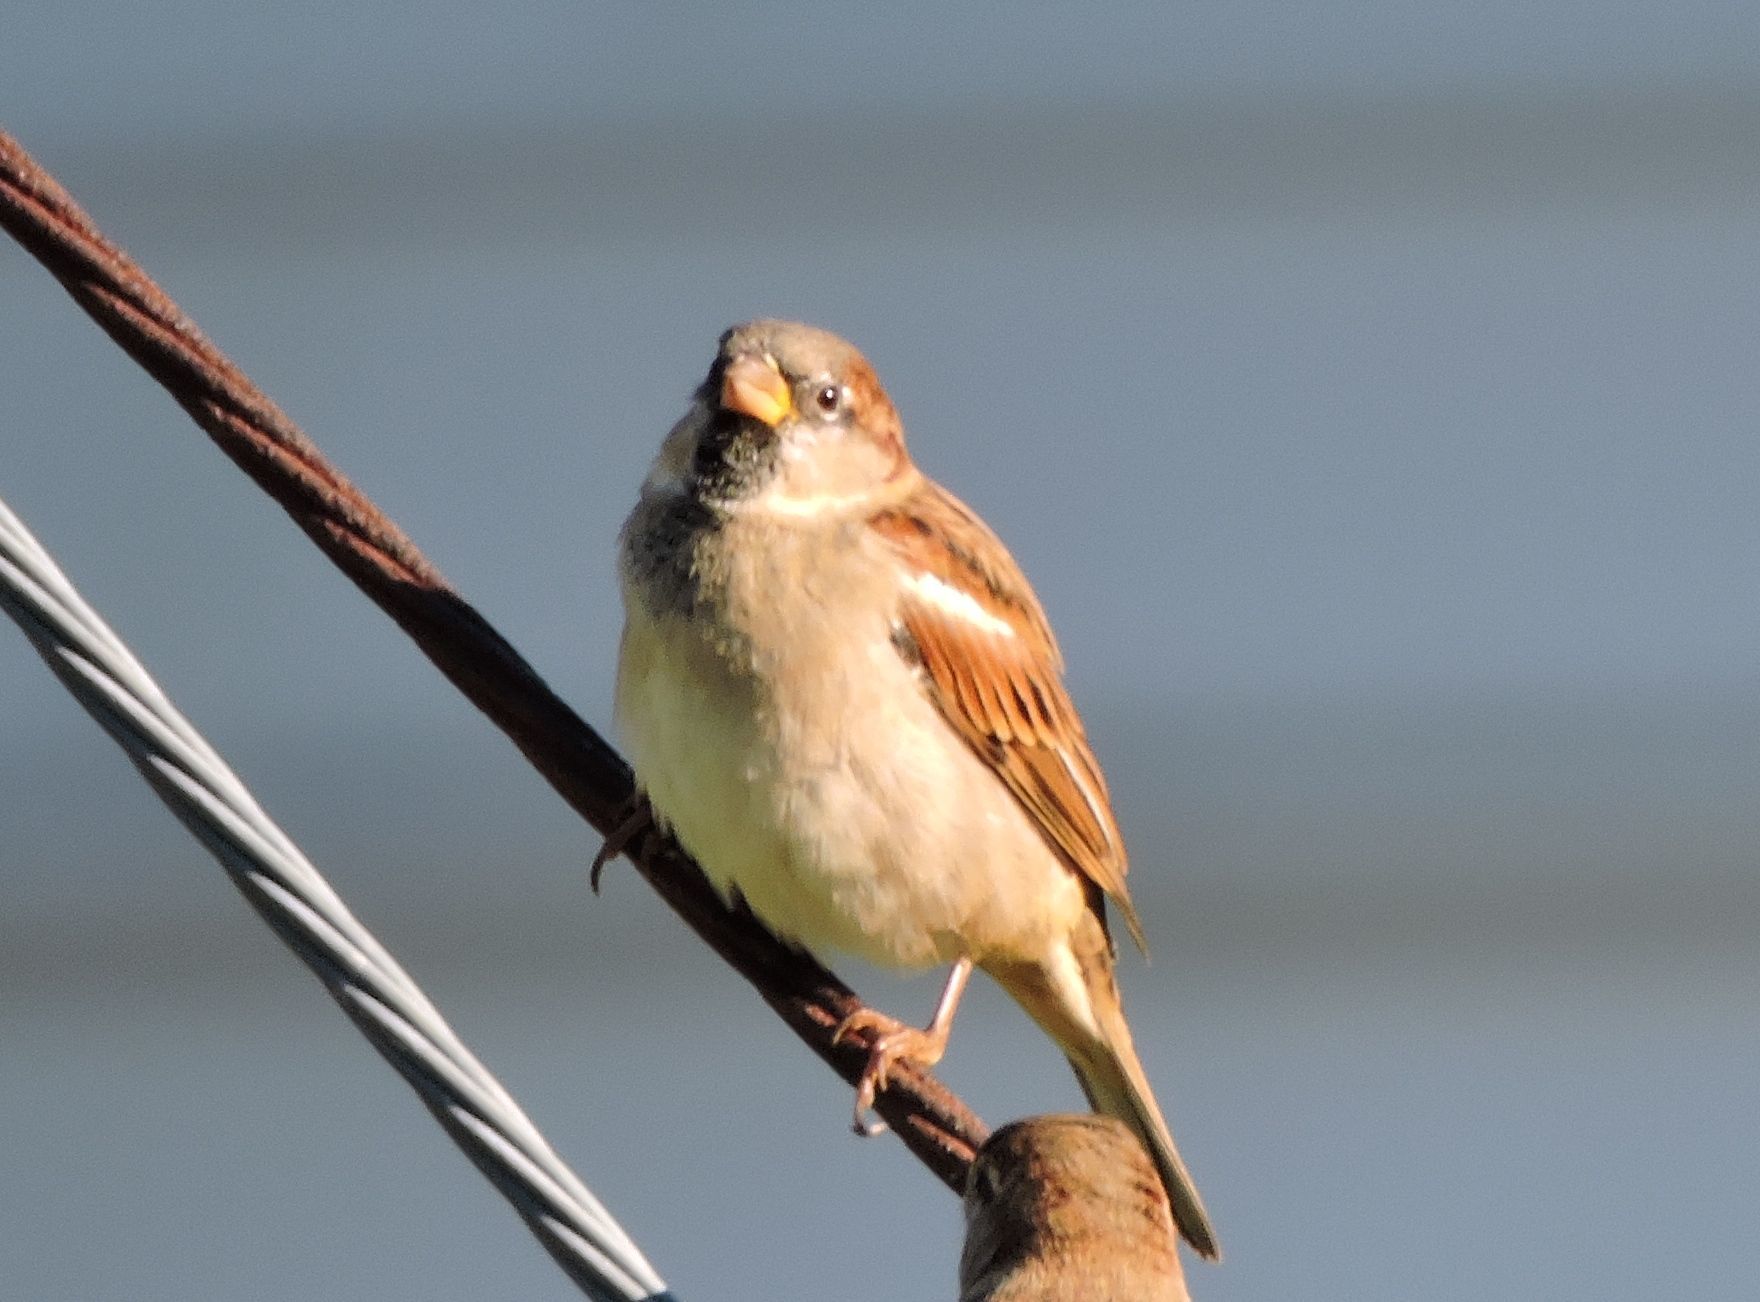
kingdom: Animalia
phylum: Chordata
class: Aves
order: Passeriformes
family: Passeridae
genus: Passer
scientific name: Passer domesticus
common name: House sparrow
